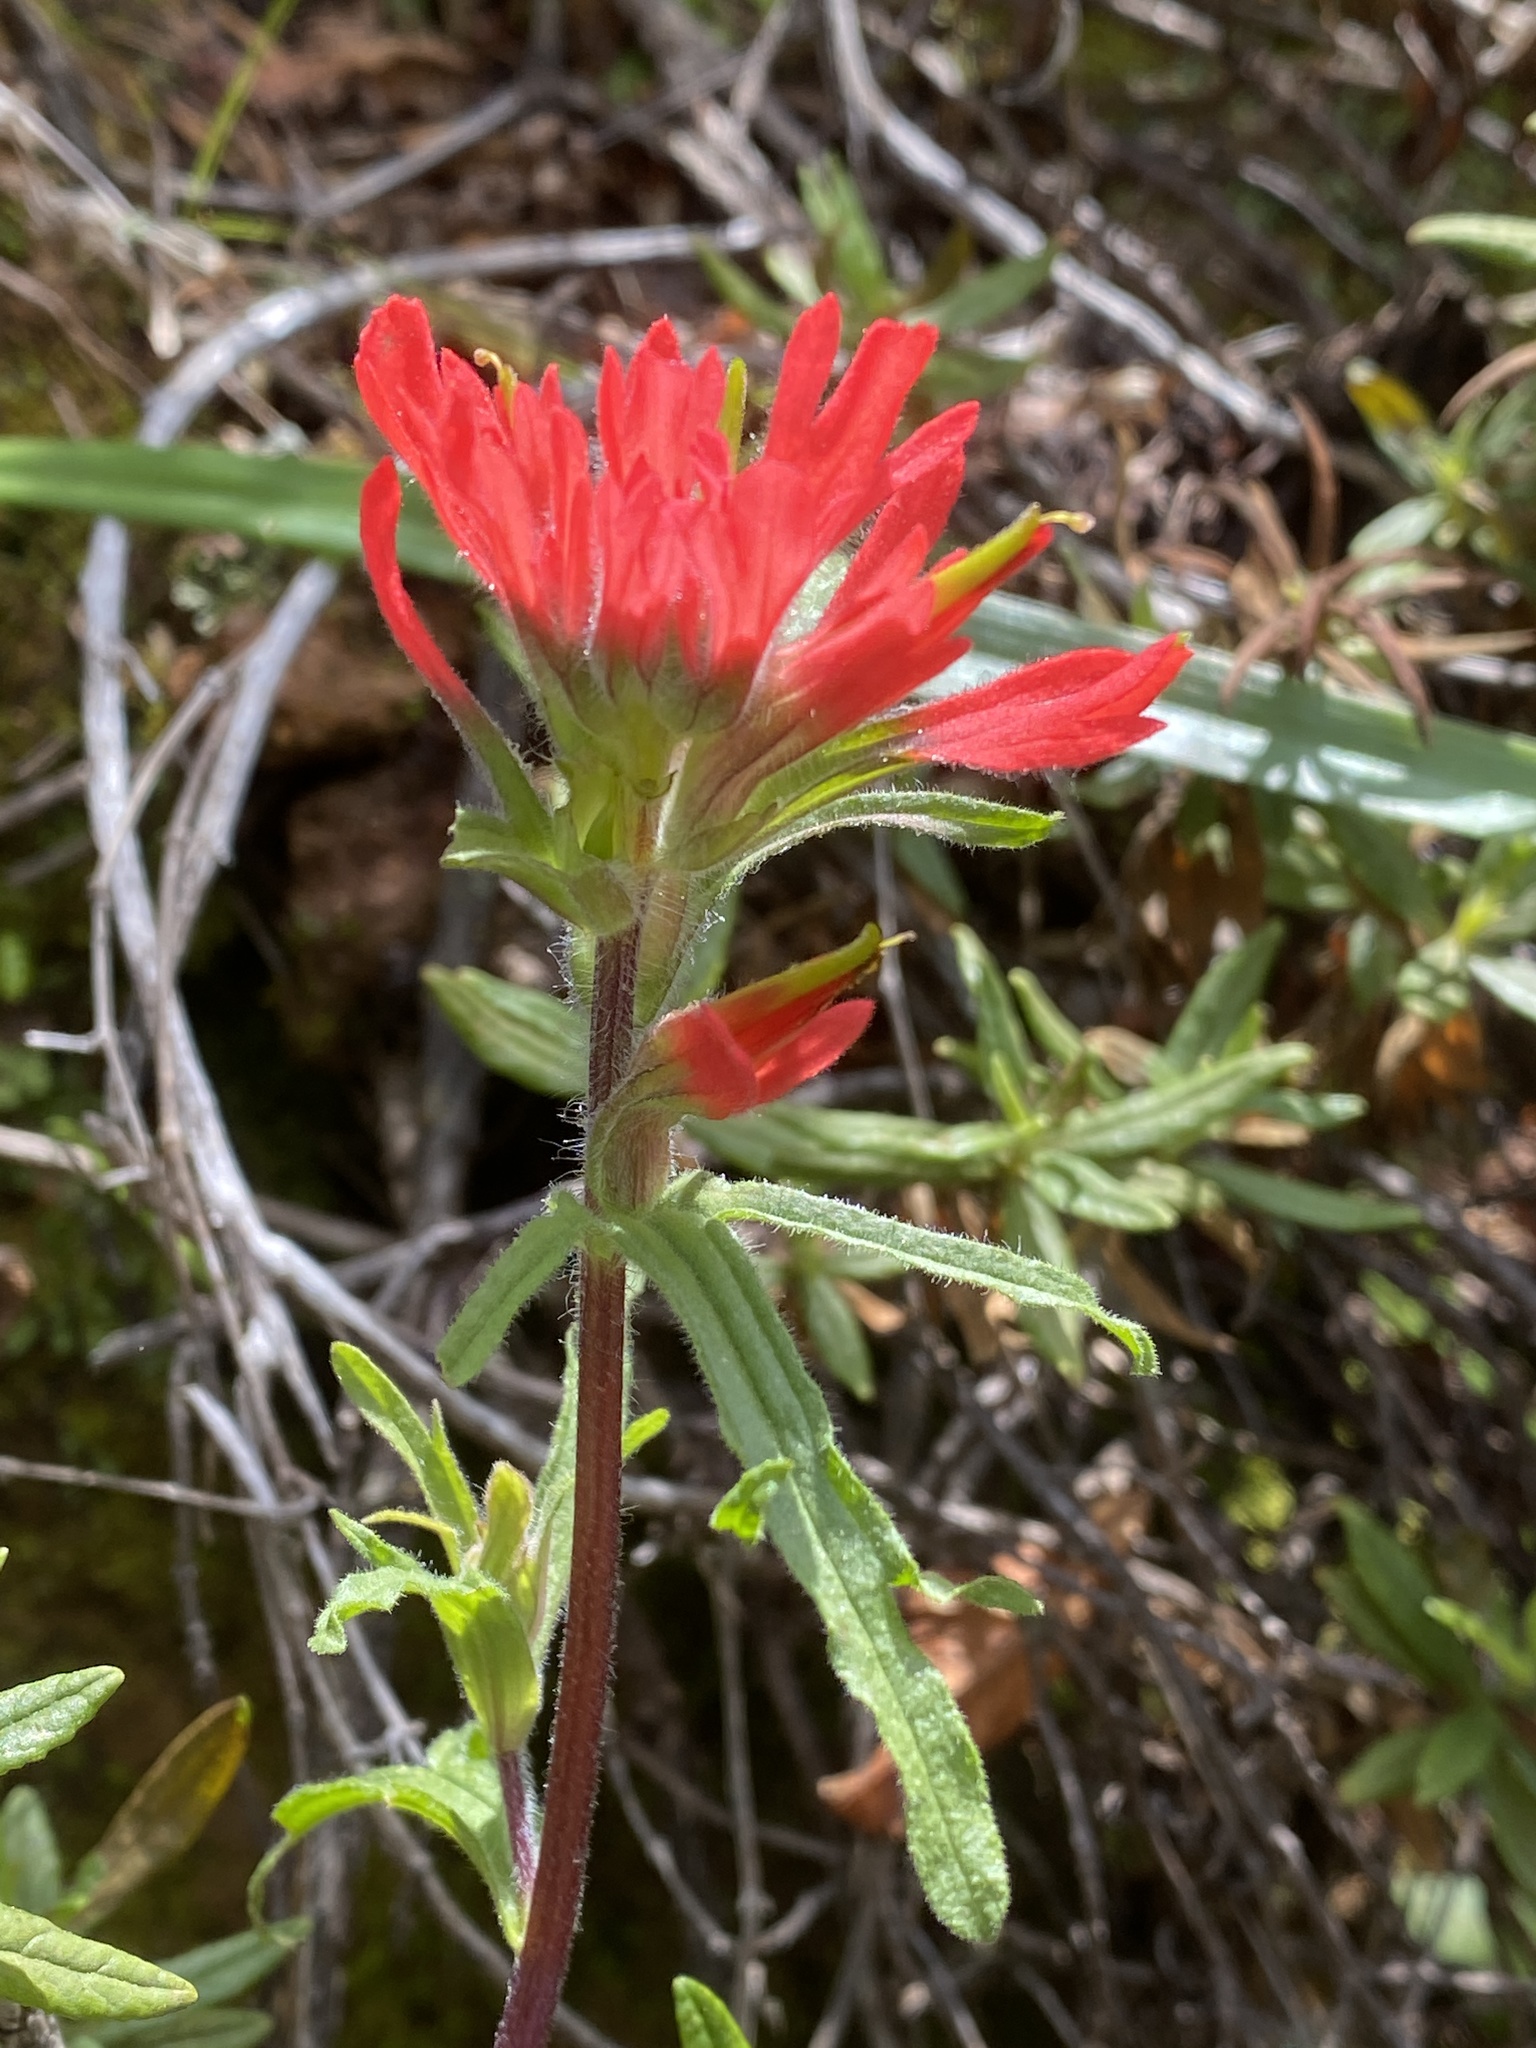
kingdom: Plantae
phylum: Tracheophyta
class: Magnoliopsida
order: Lamiales
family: Orobanchaceae
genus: Castilleja
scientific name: Castilleja affinis
